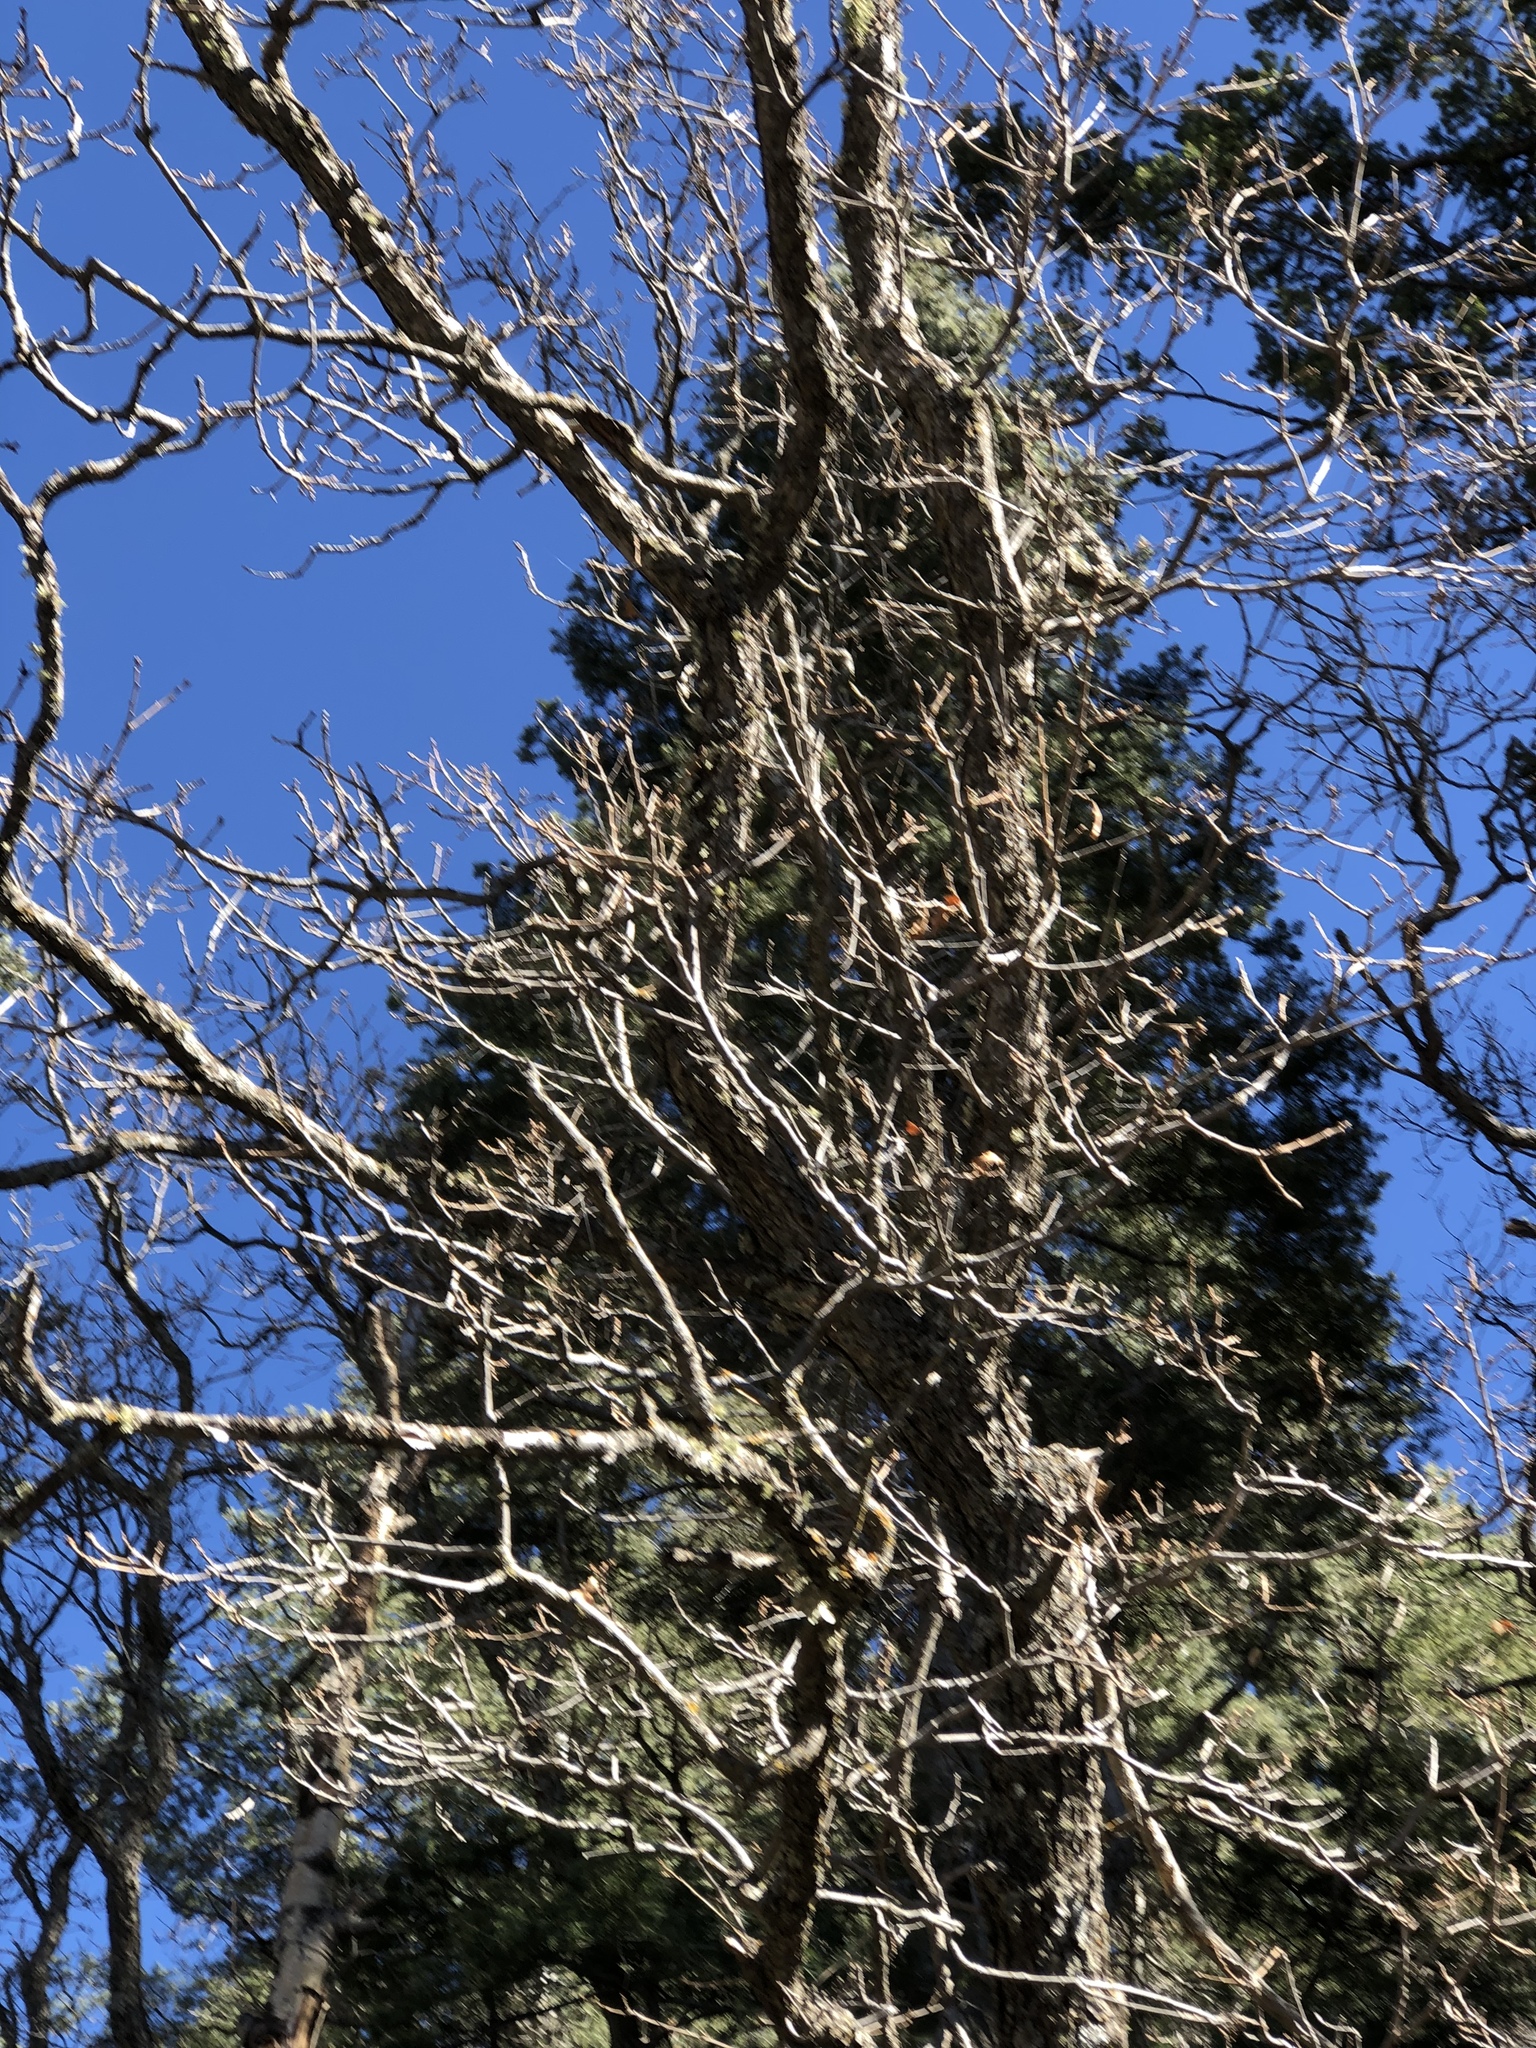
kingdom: Plantae
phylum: Tracheophyta
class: Magnoliopsida
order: Fagales
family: Fagaceae
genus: Quercus
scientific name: Quercus gambelii
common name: Gambel oak
